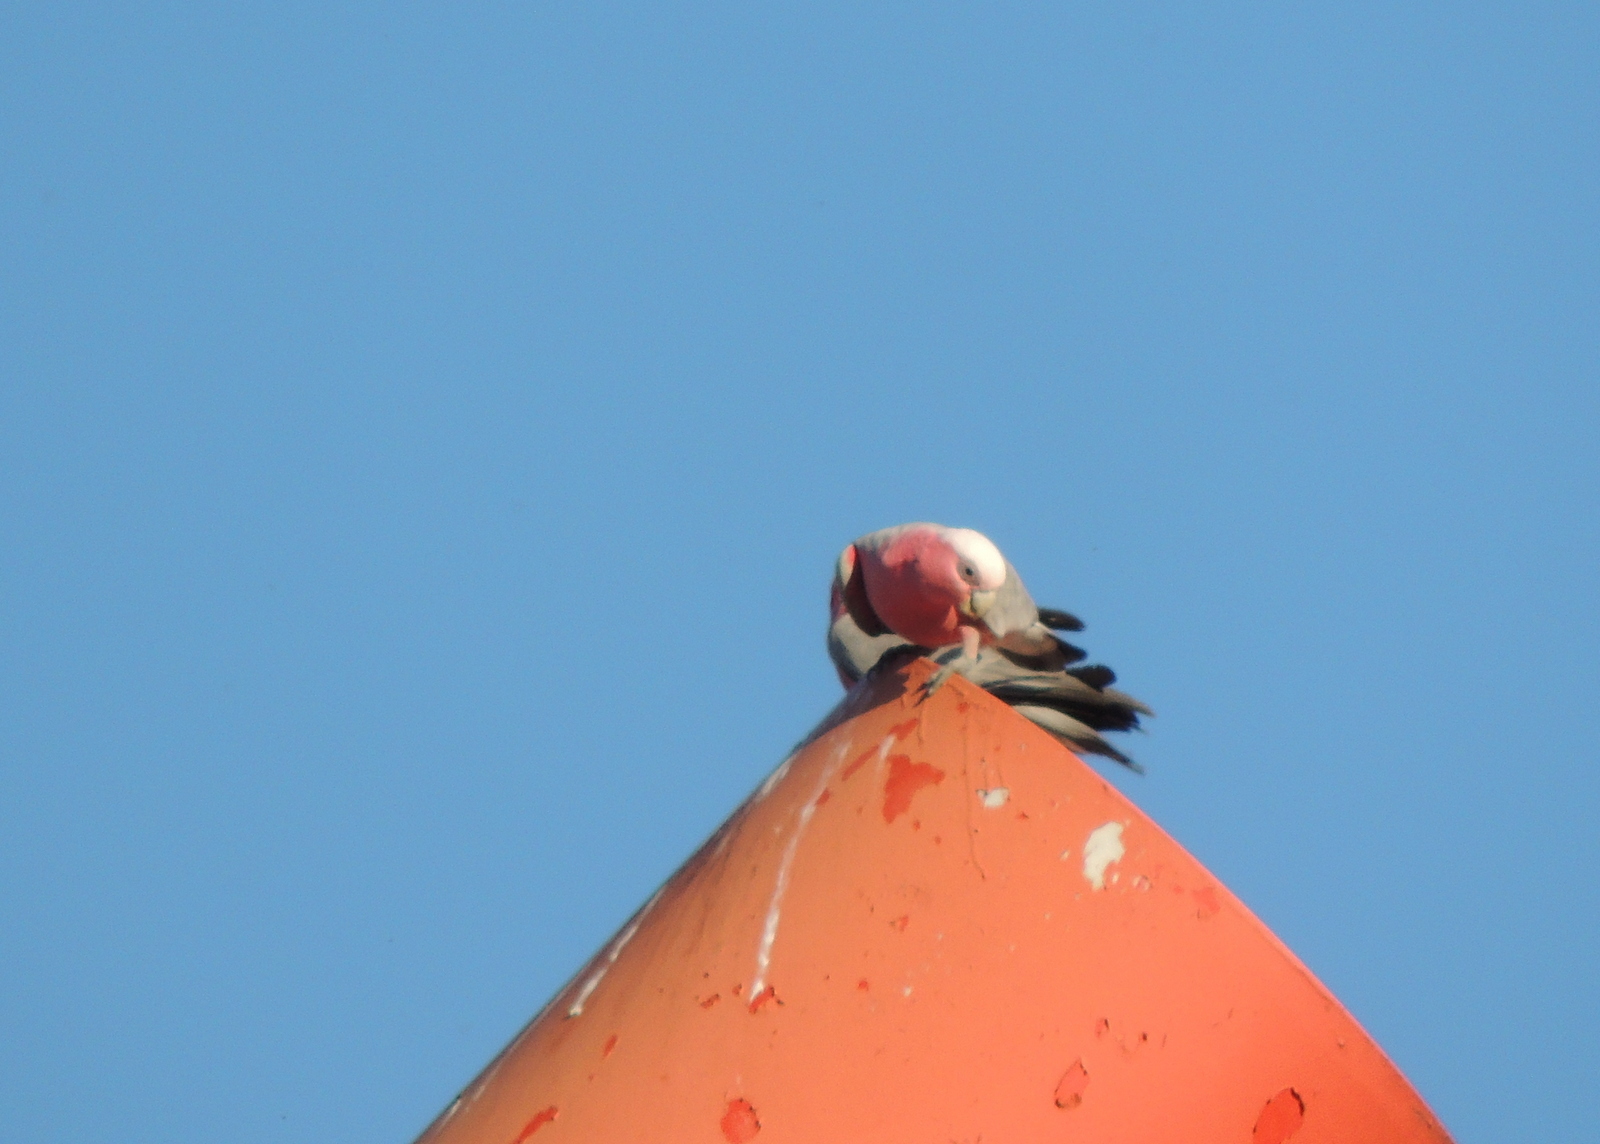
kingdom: Animalia
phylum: Chordata
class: Aves
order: Psittaciformes
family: Psittacidae
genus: Eolophus
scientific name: Eolophus roseicapilla
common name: Galah
